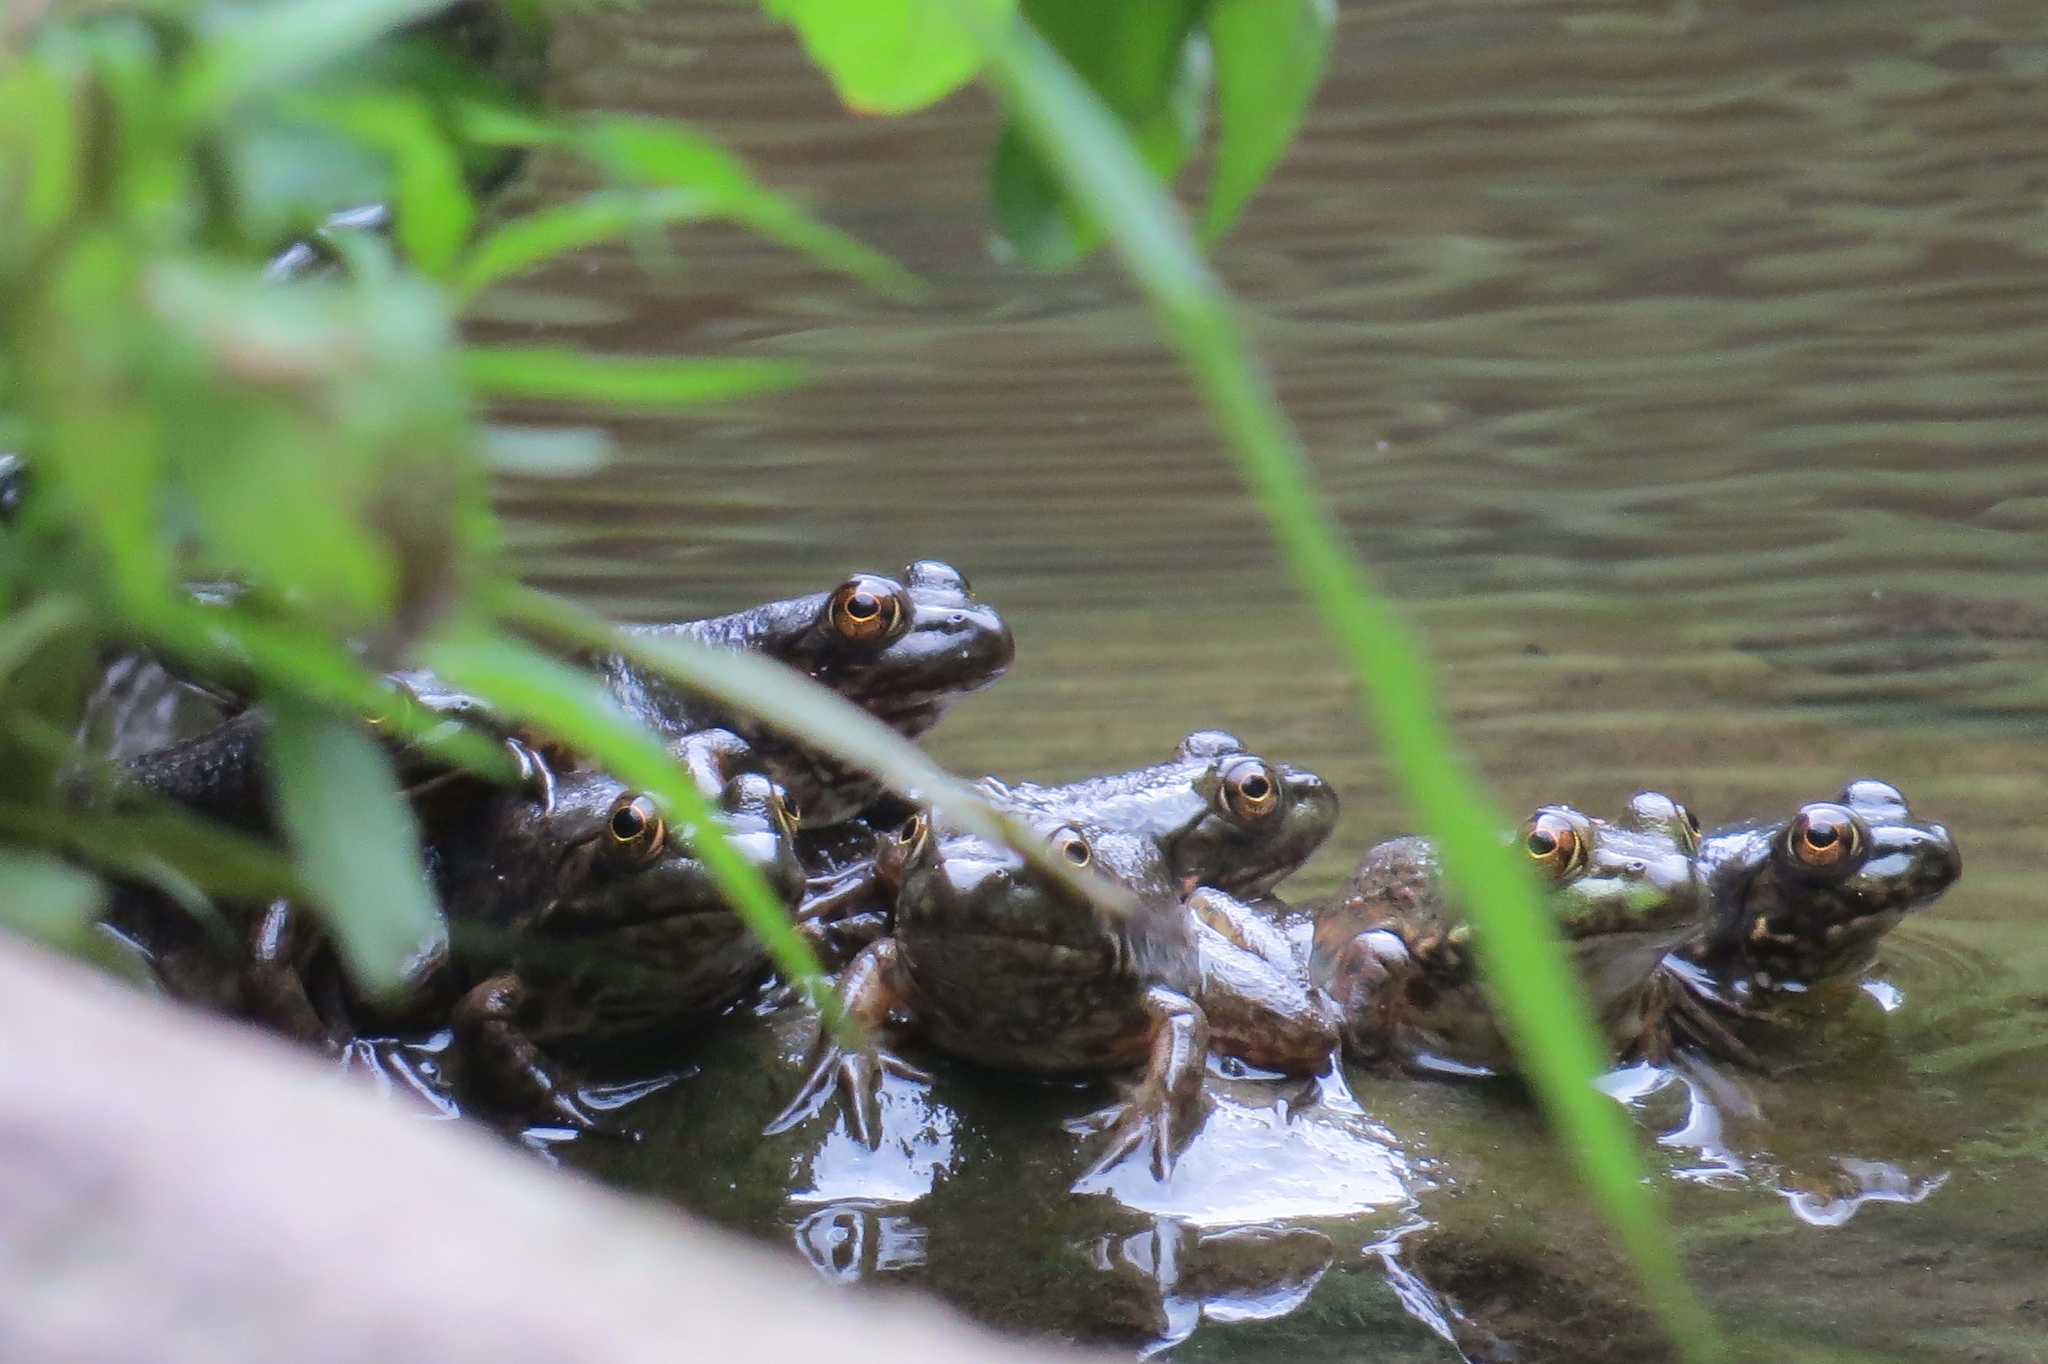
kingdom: Animalia
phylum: Chordata
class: Amphibia
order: Anura
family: Ranidae
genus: Lithobates
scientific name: Lithobates catesbeianus
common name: American bullfrog
